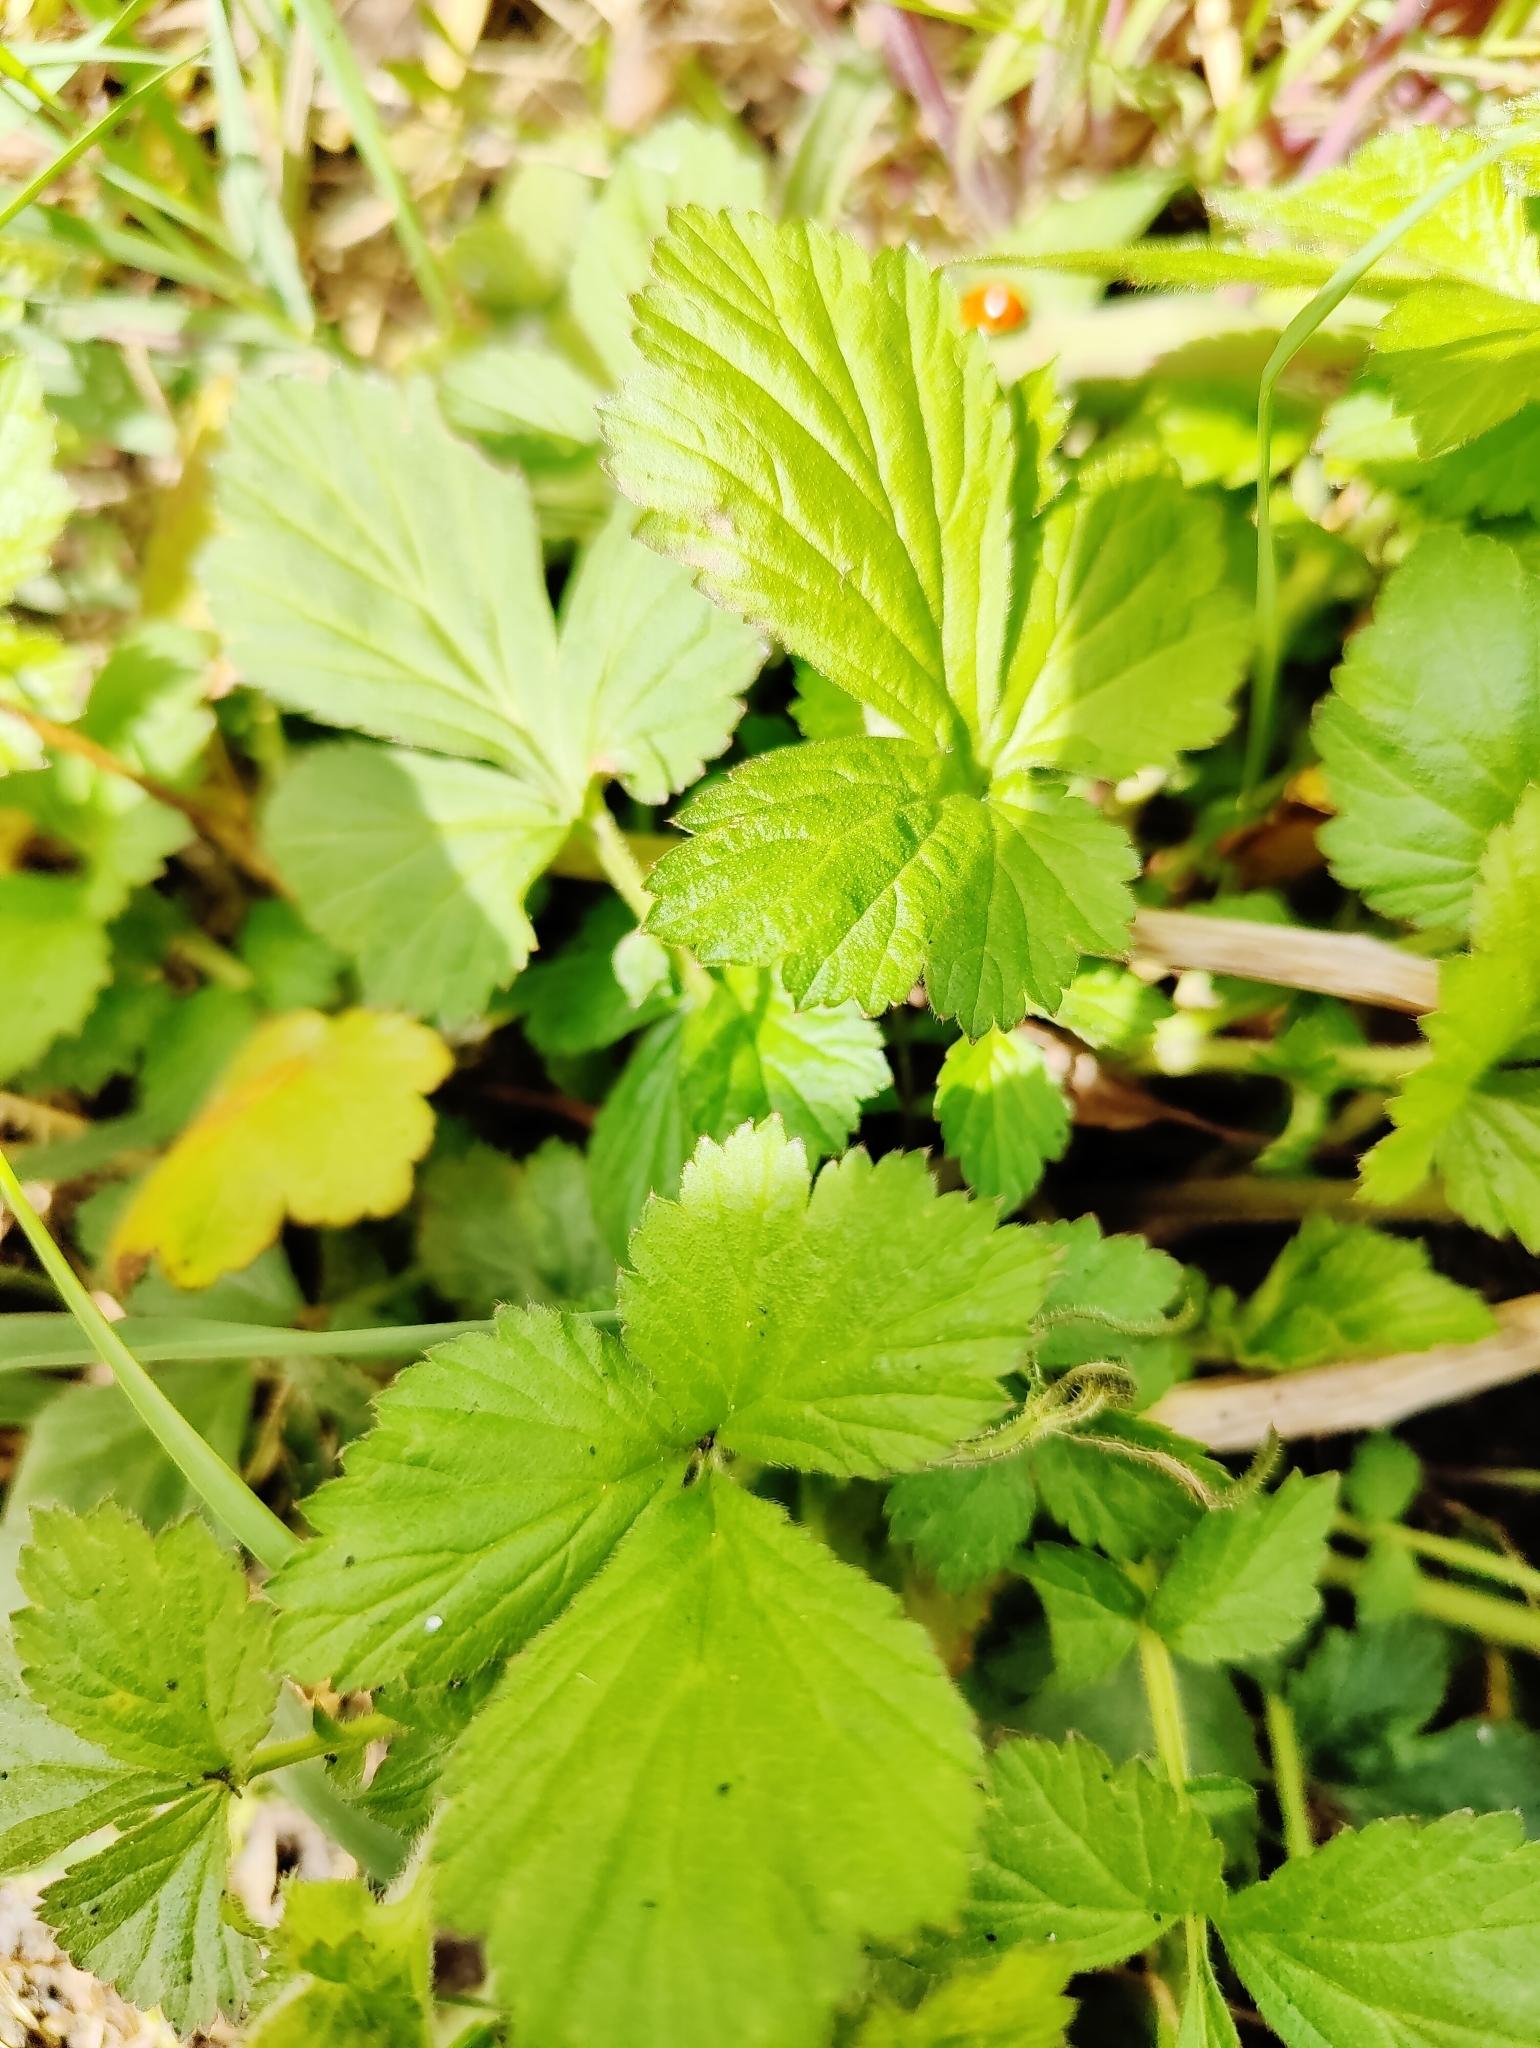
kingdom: Plantae
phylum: Tracheophyta
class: Magnoliopsida
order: Rosales
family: Rosaceae
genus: Geum
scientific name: Geum urbanum
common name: Wood avens
